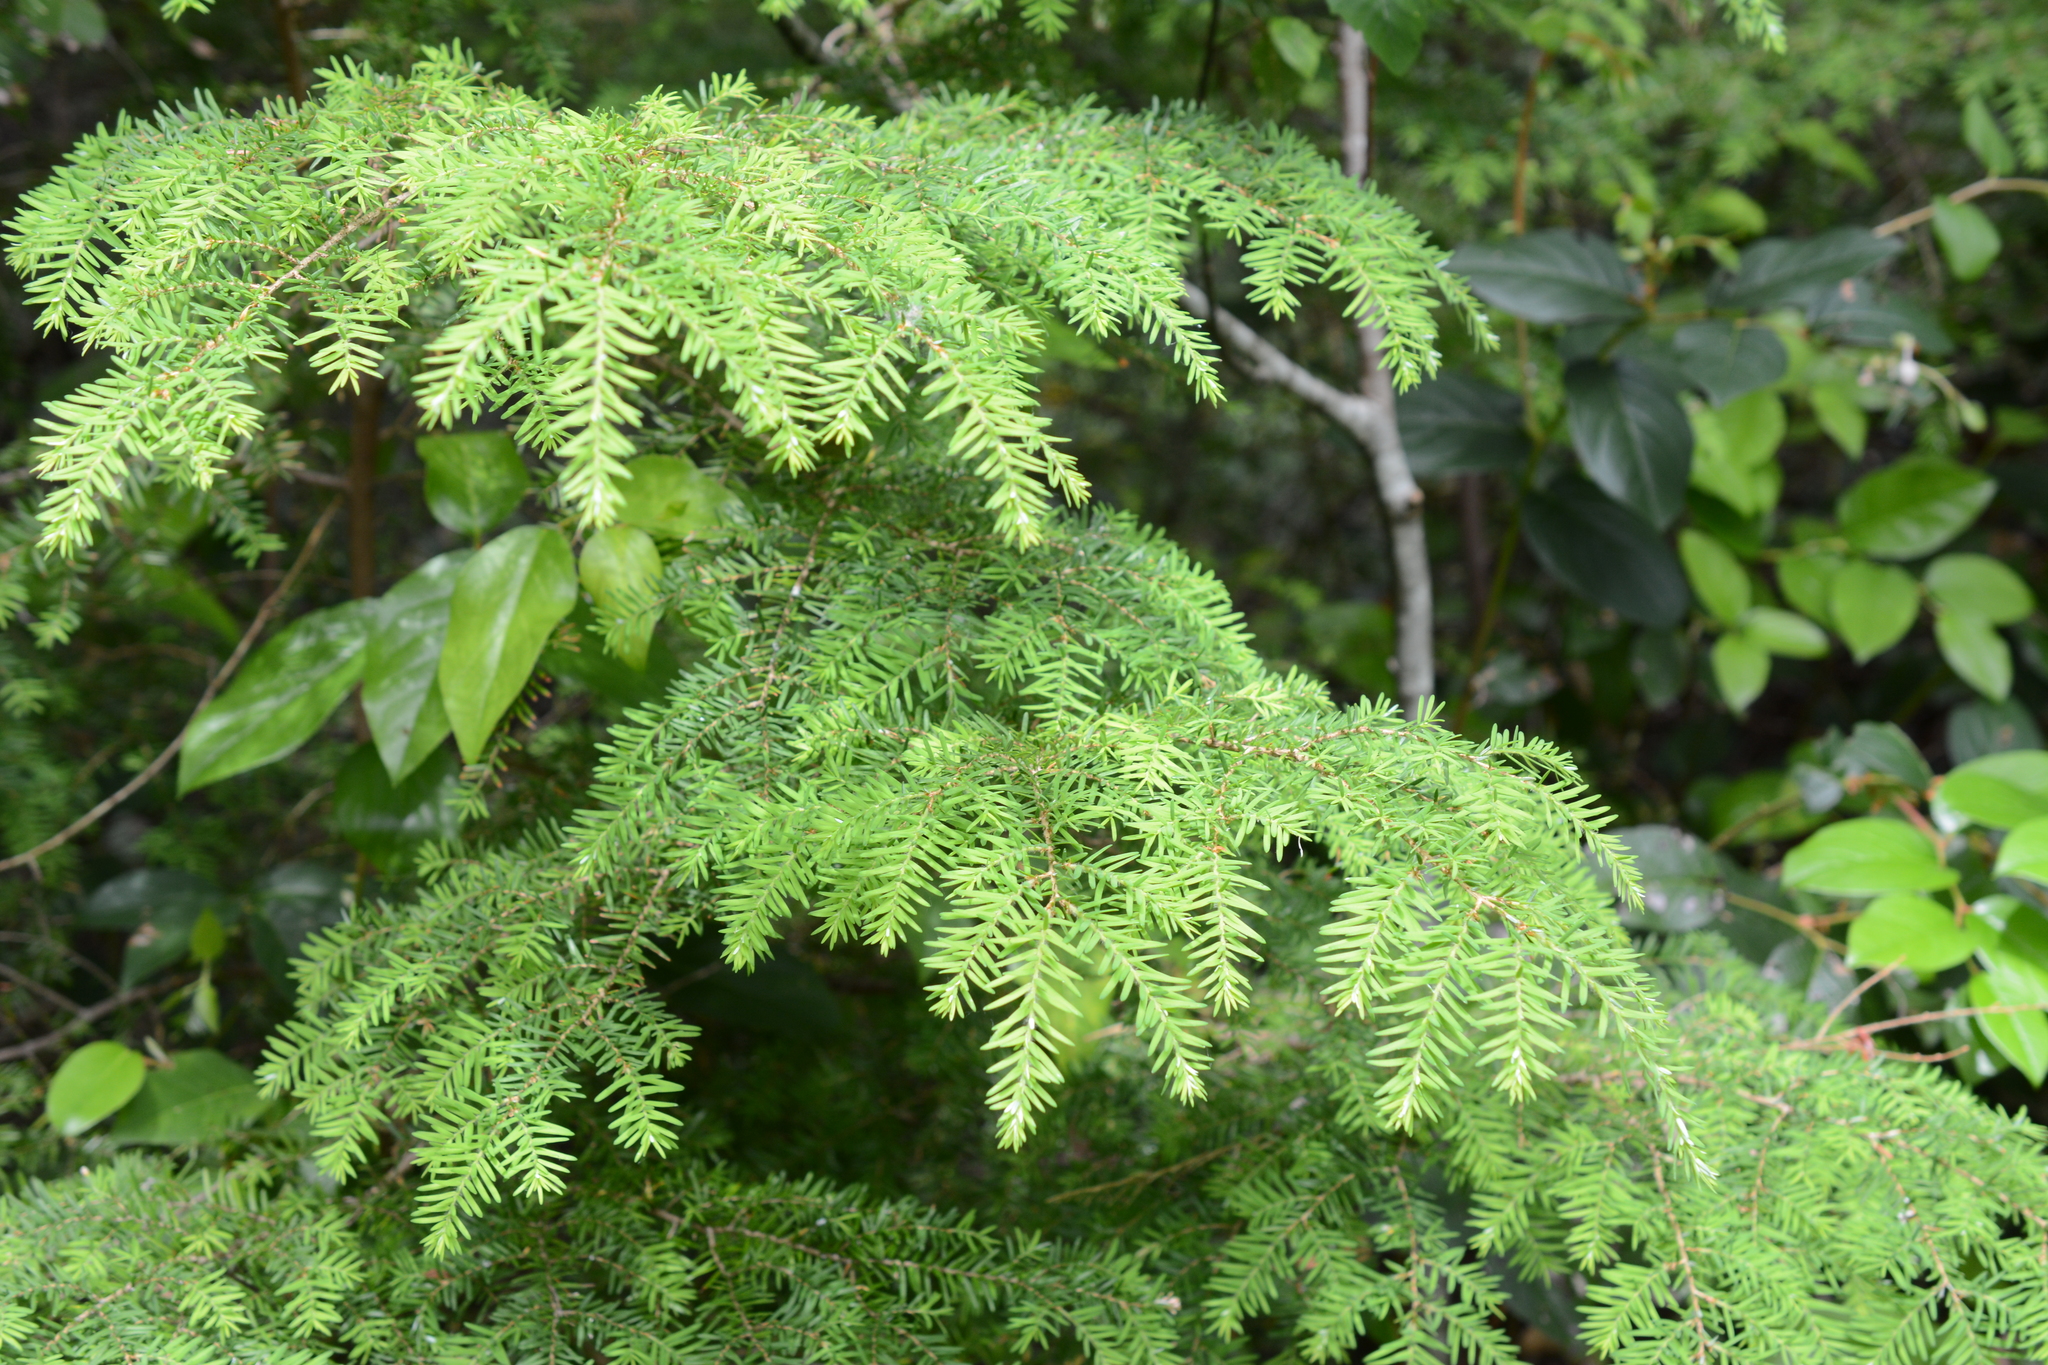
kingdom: Plantae
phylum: Tracheophyta
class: Pinopsida
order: Pinales
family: Pinaceae
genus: Tsuga
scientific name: Tsuga heterophylla
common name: Western hemlock
